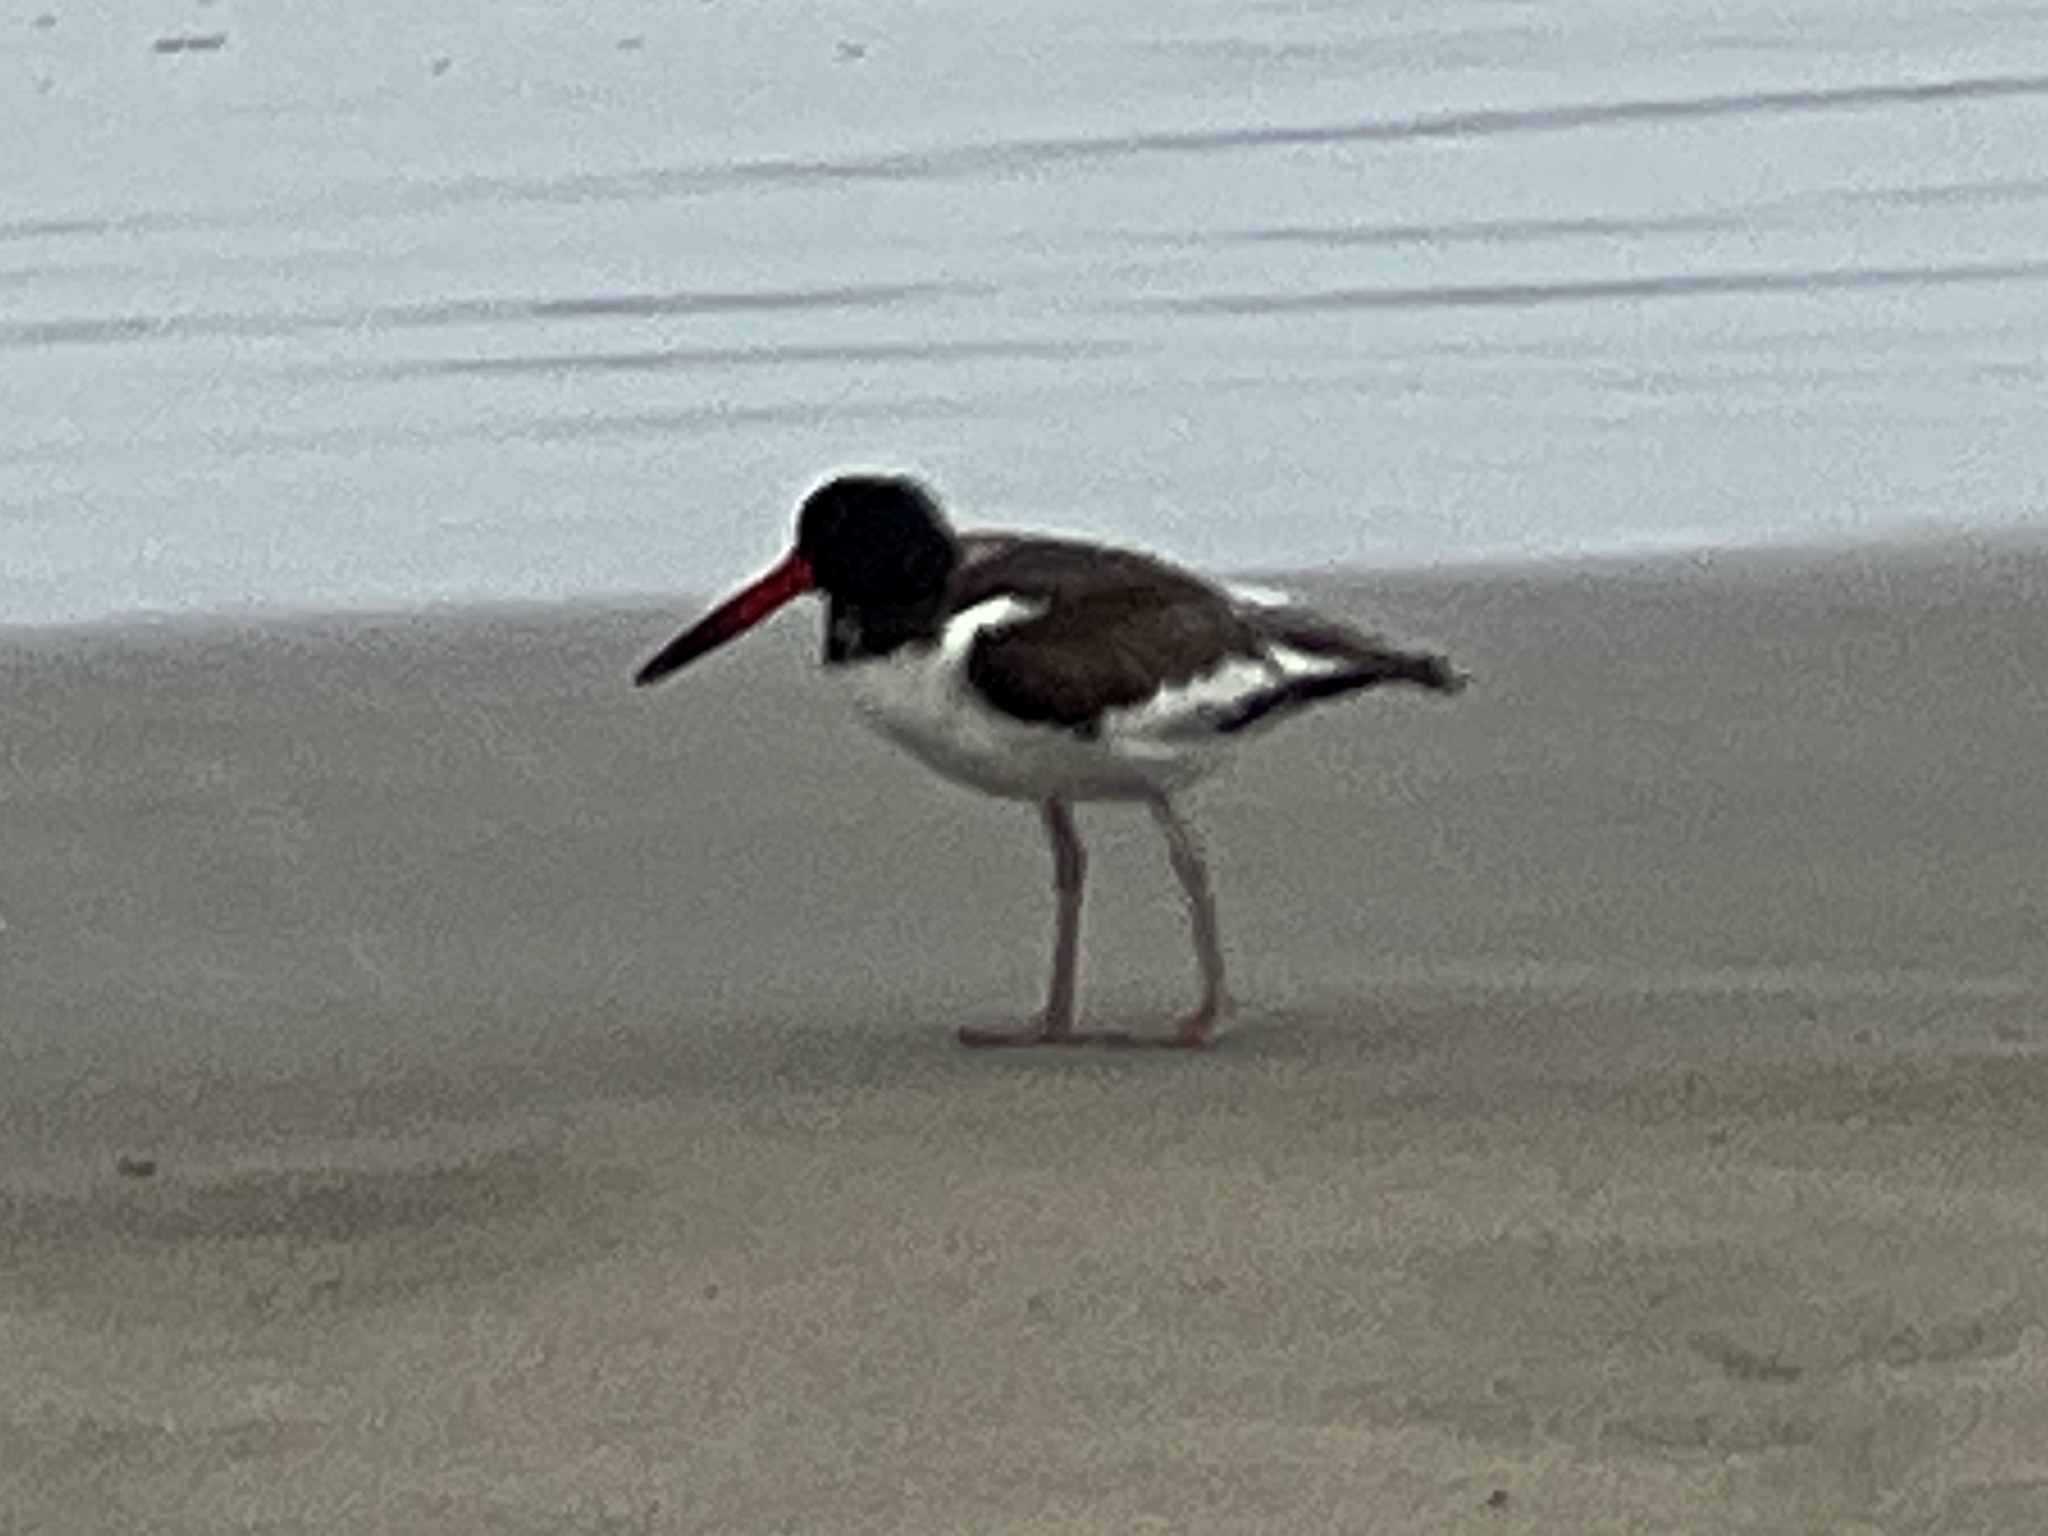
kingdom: Animalia
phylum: Chordata
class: Aves
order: Charadriiformes
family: Haematopodidae
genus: Haematopus
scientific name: Haematopus palliatus
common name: American oystercatcher
